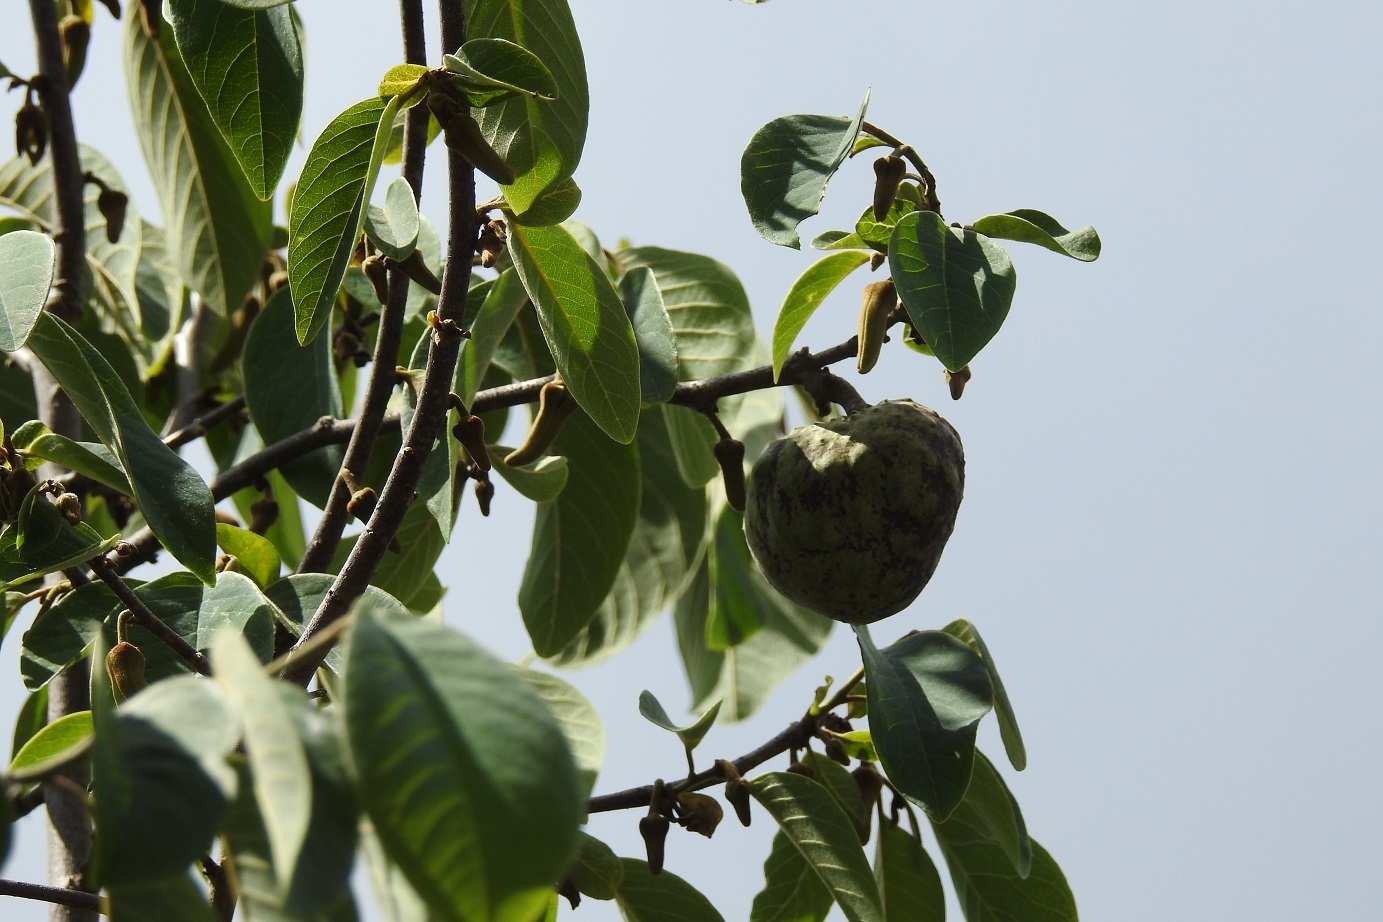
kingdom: Plantae
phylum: Tracheophyta
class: Magnoliopsida
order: Magnoliales
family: Annonaceae
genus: Annona
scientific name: Annona cherimola
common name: Cherimoya
